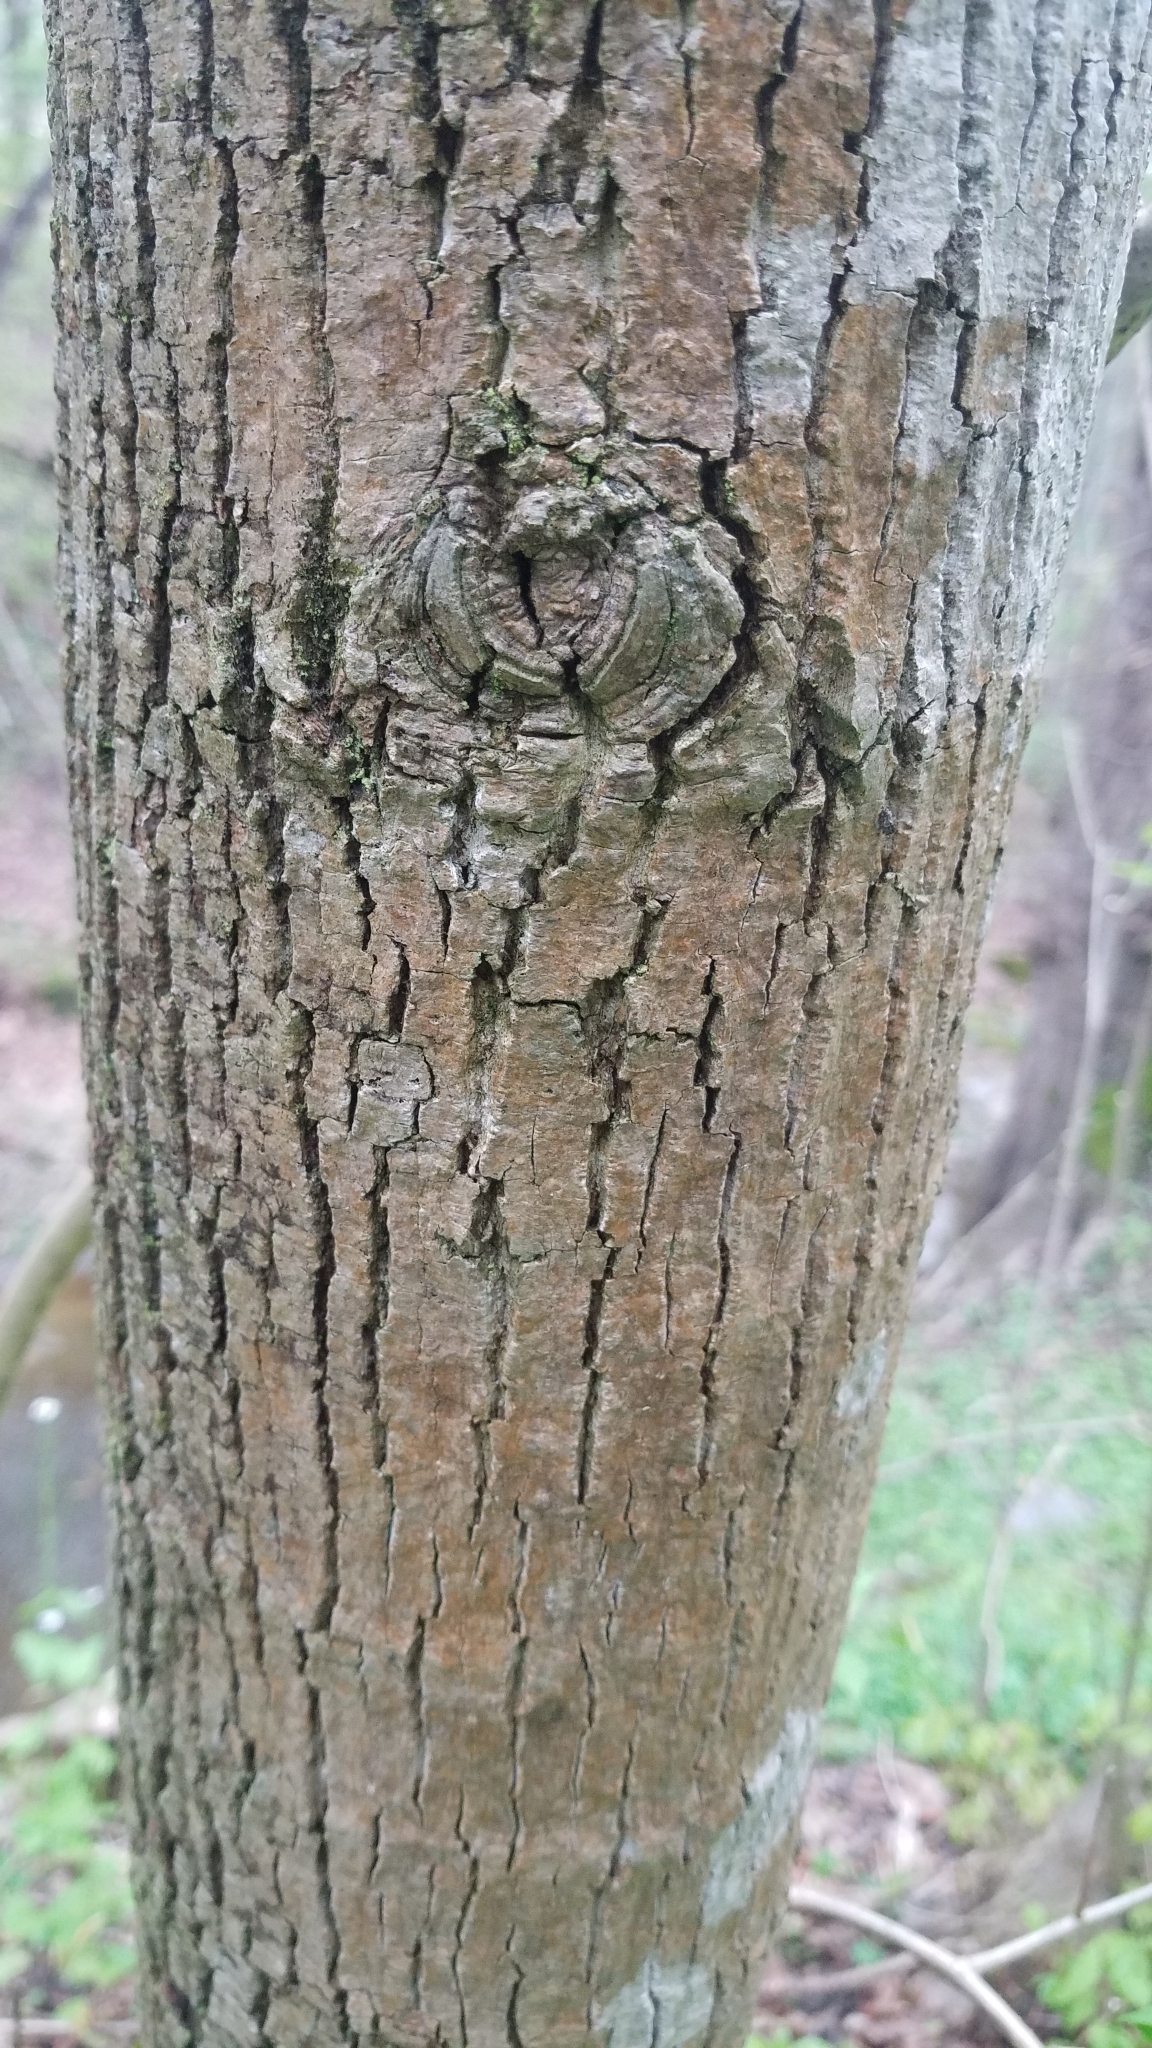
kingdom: Plantae
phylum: Tracheophyta
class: Magnoliopsida
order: Magnoliales
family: Magnoliaceae
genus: Liriodendron
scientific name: Liriodendron tulipifera
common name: Tulip tree
